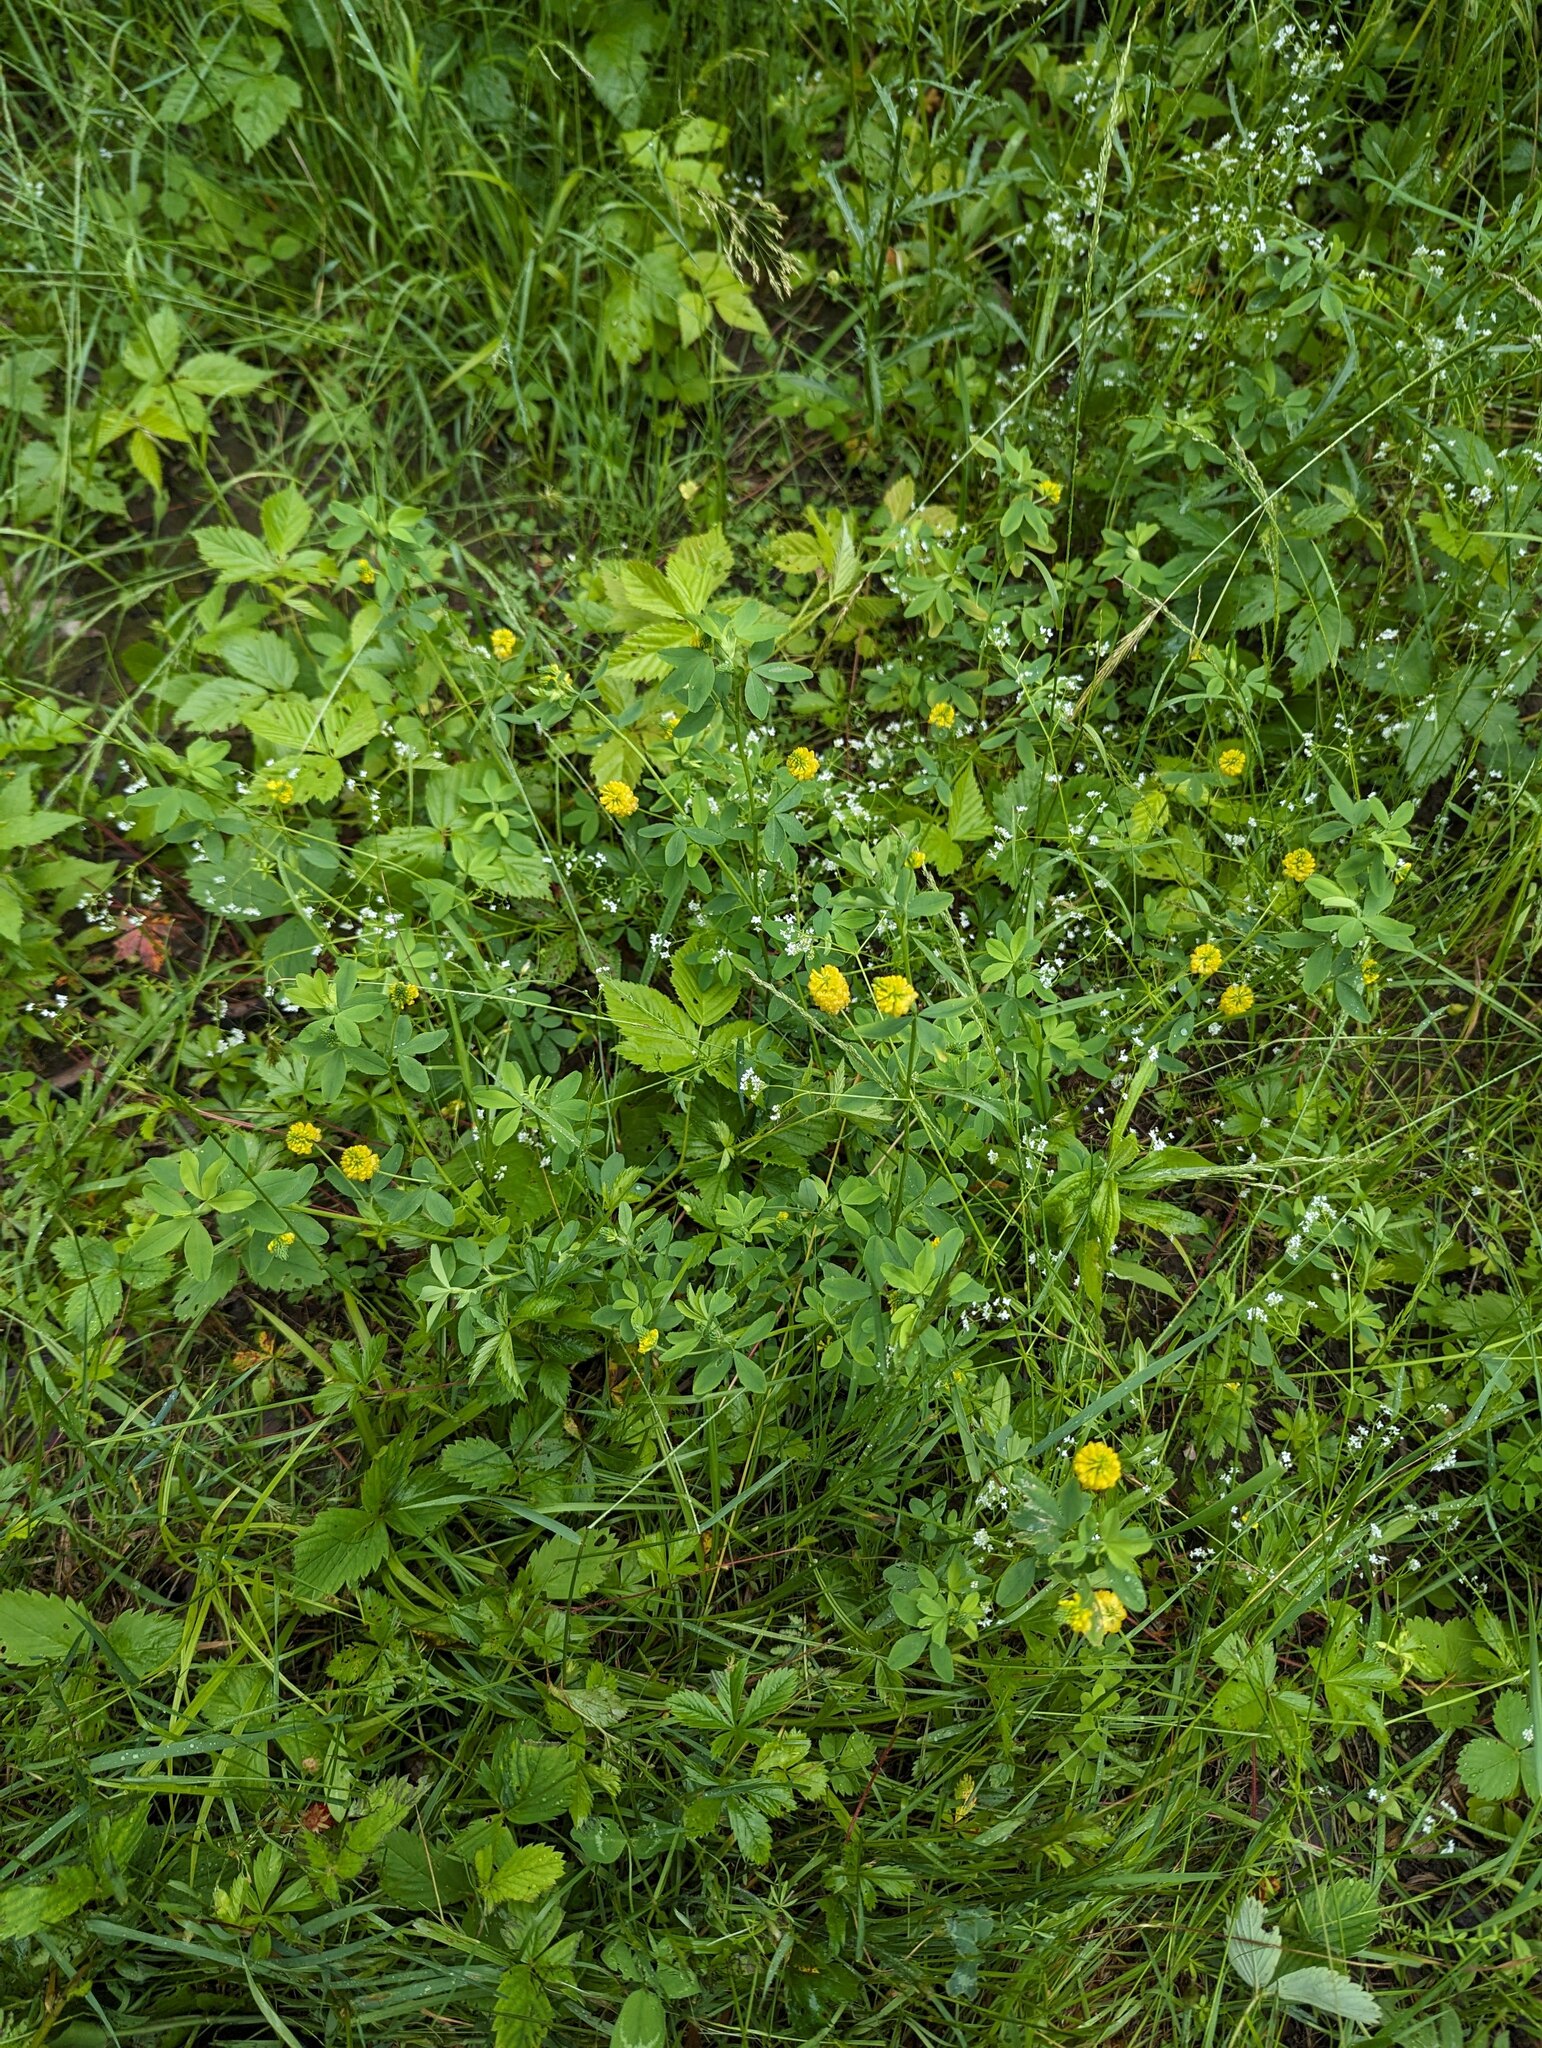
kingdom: Plantae
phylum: Tracheophyta
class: Magnoliopsida
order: Fabales
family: Fabaceae
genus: Trifolium
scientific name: Trifolium aureum
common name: Golden clover
